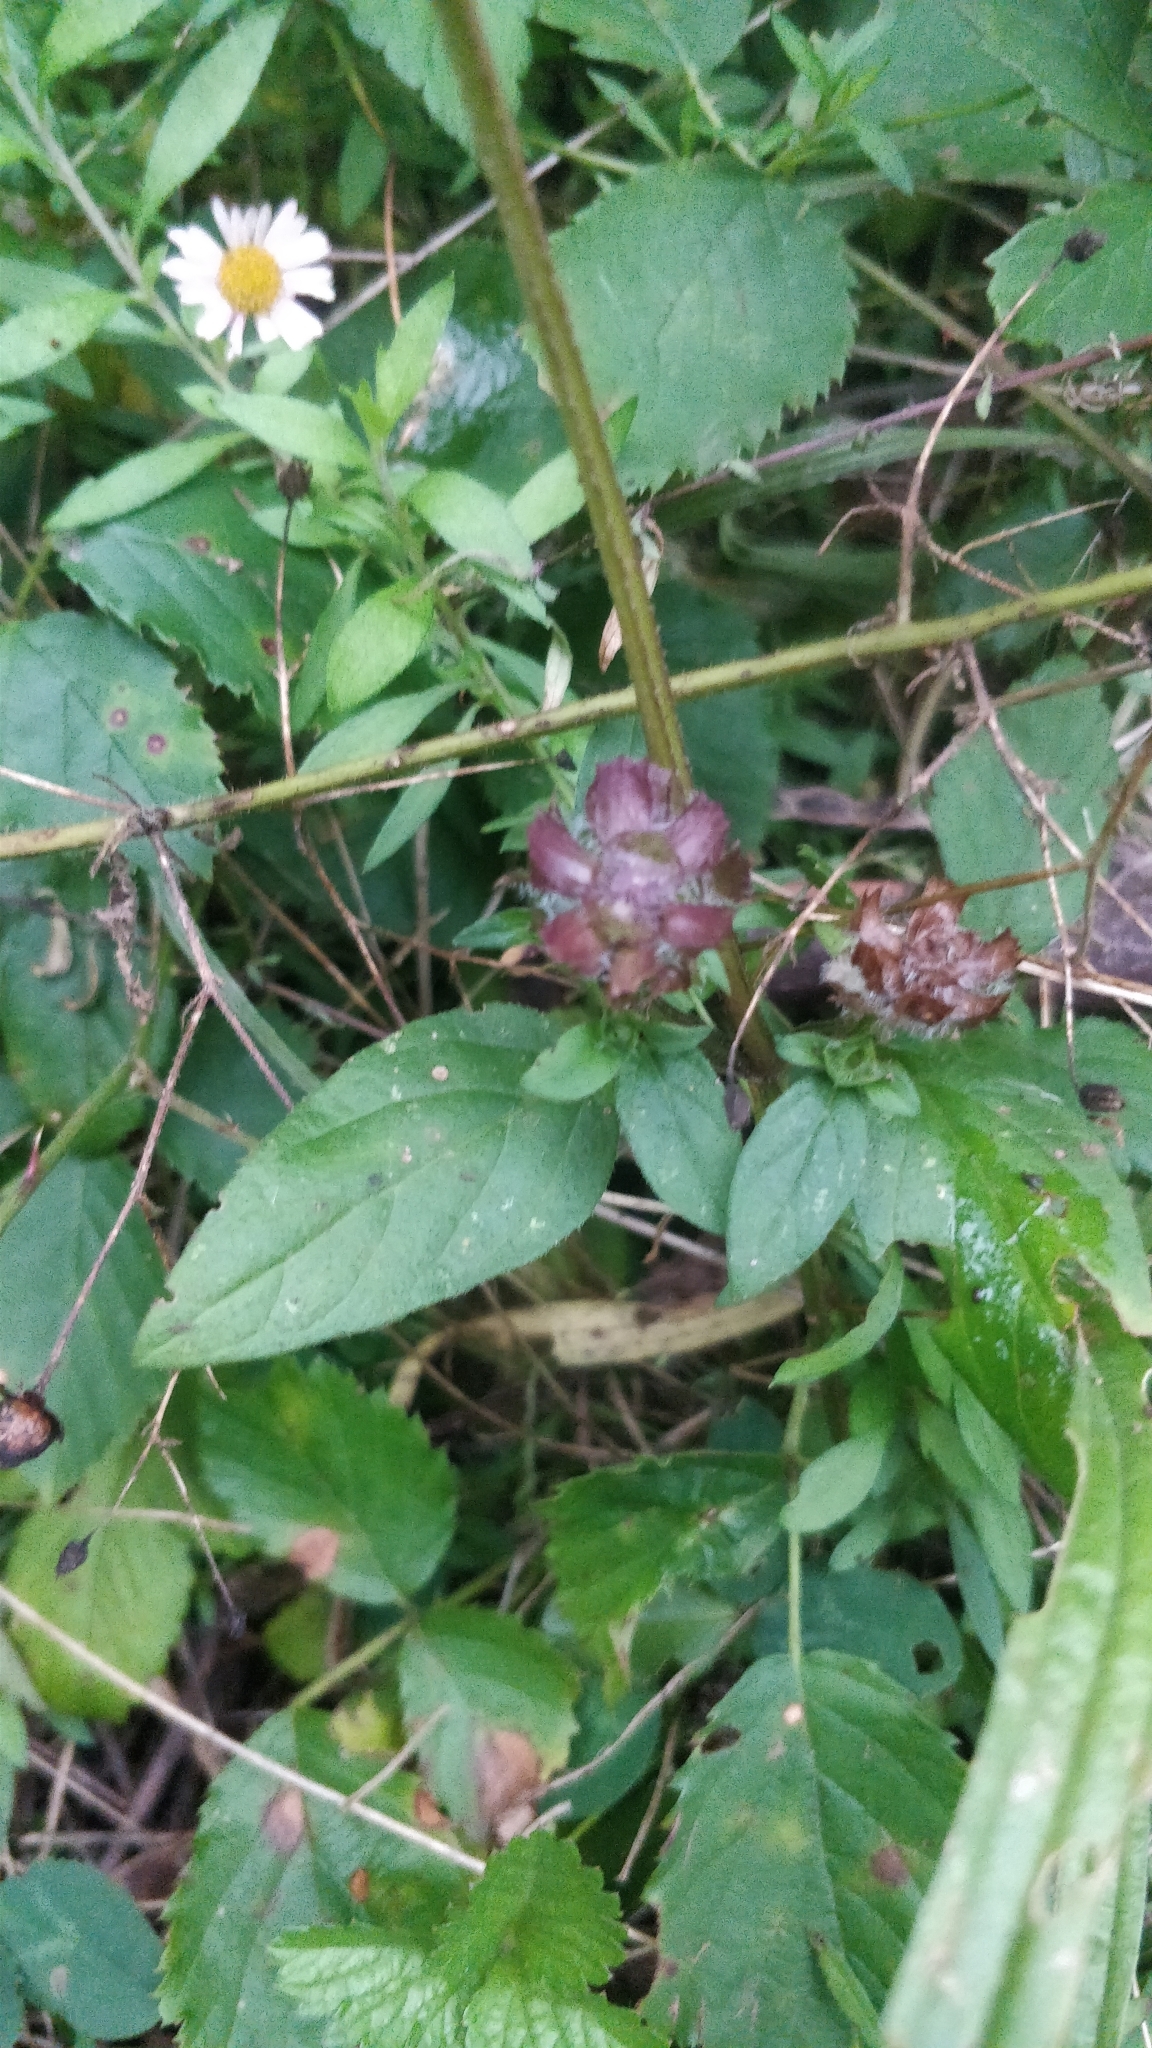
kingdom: Plantae
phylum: Tracheophyta
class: Magnoliopsida
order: Lamiales
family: Lamiaceae
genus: Prunella
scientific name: Prunella vulgaris
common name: Heal-all
